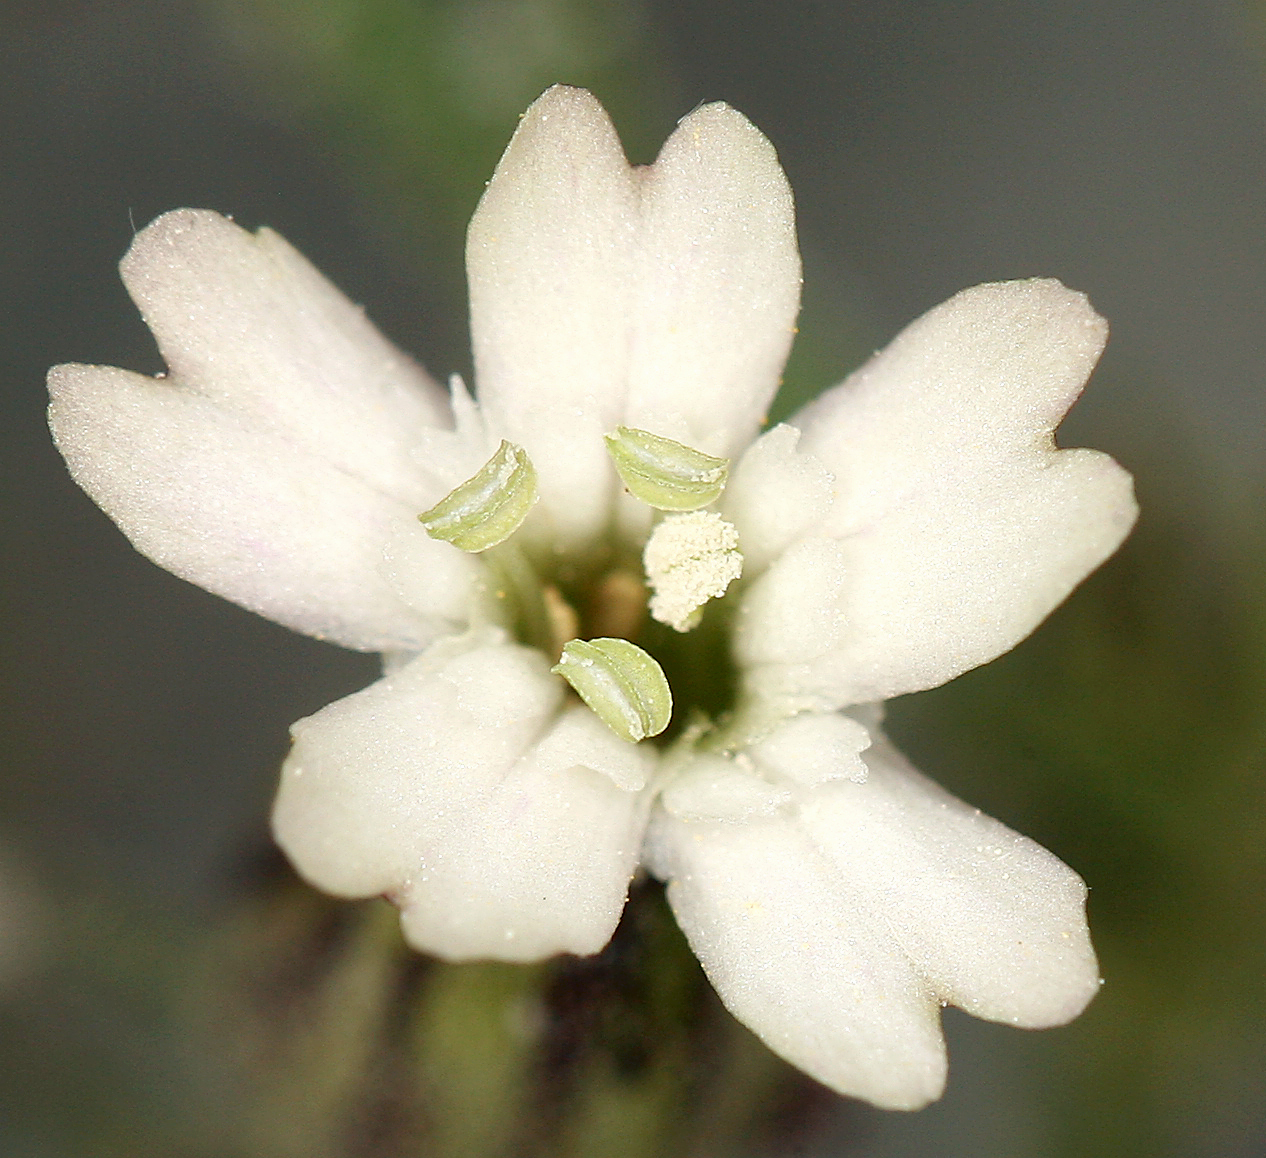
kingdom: Plantae
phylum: Tracheophyta
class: Magnoliopsida
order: Caryophyllales
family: Caryophyllaceae
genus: Silene
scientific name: Silene sargentii
